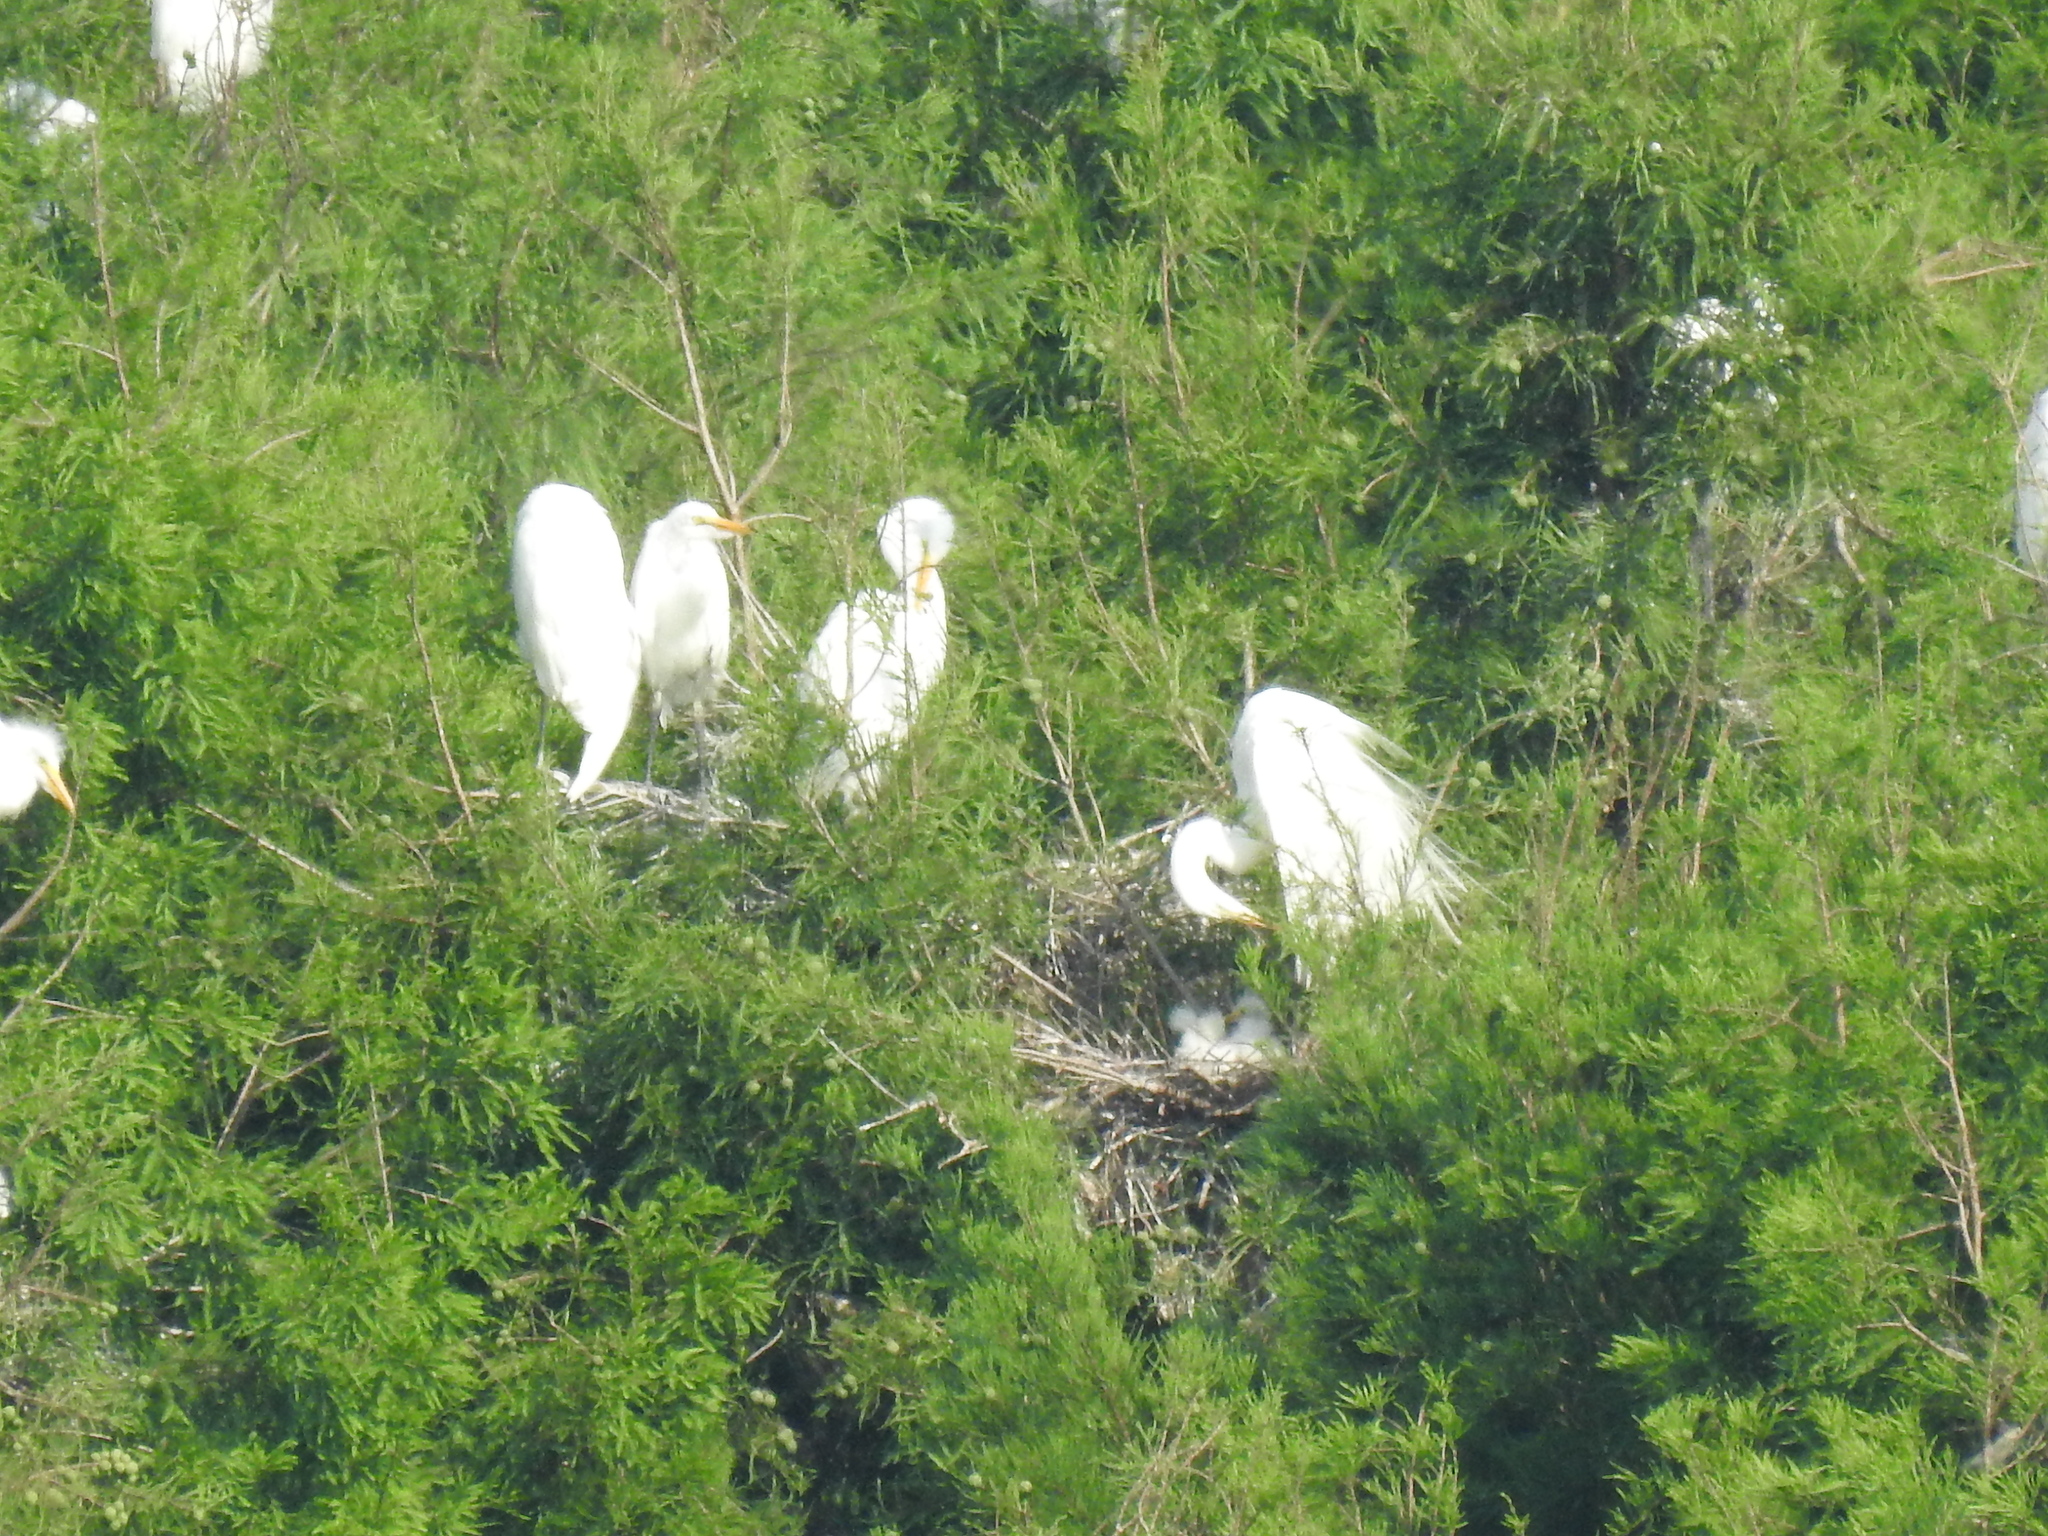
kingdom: Animalia
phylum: Chordata
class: Aves
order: Pelecaniformes
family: Ardeidae
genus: Ardea
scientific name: Ardea alba
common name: Great egret
